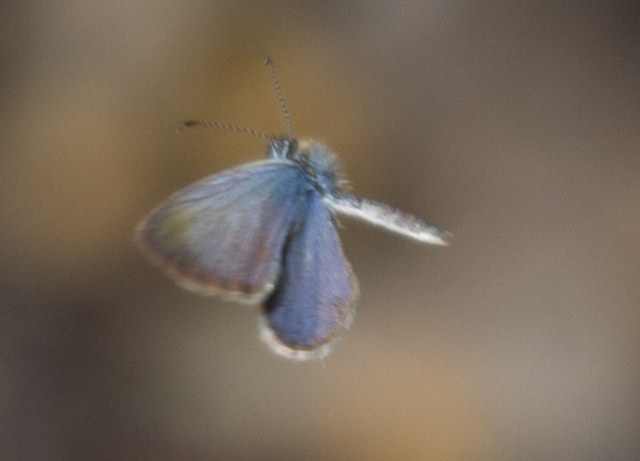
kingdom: Animalia
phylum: Arthropoda
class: Insecta
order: Lepidoptera
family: Lycaenidae
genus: Zizula
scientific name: Zizula hylax
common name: Gaika blue
